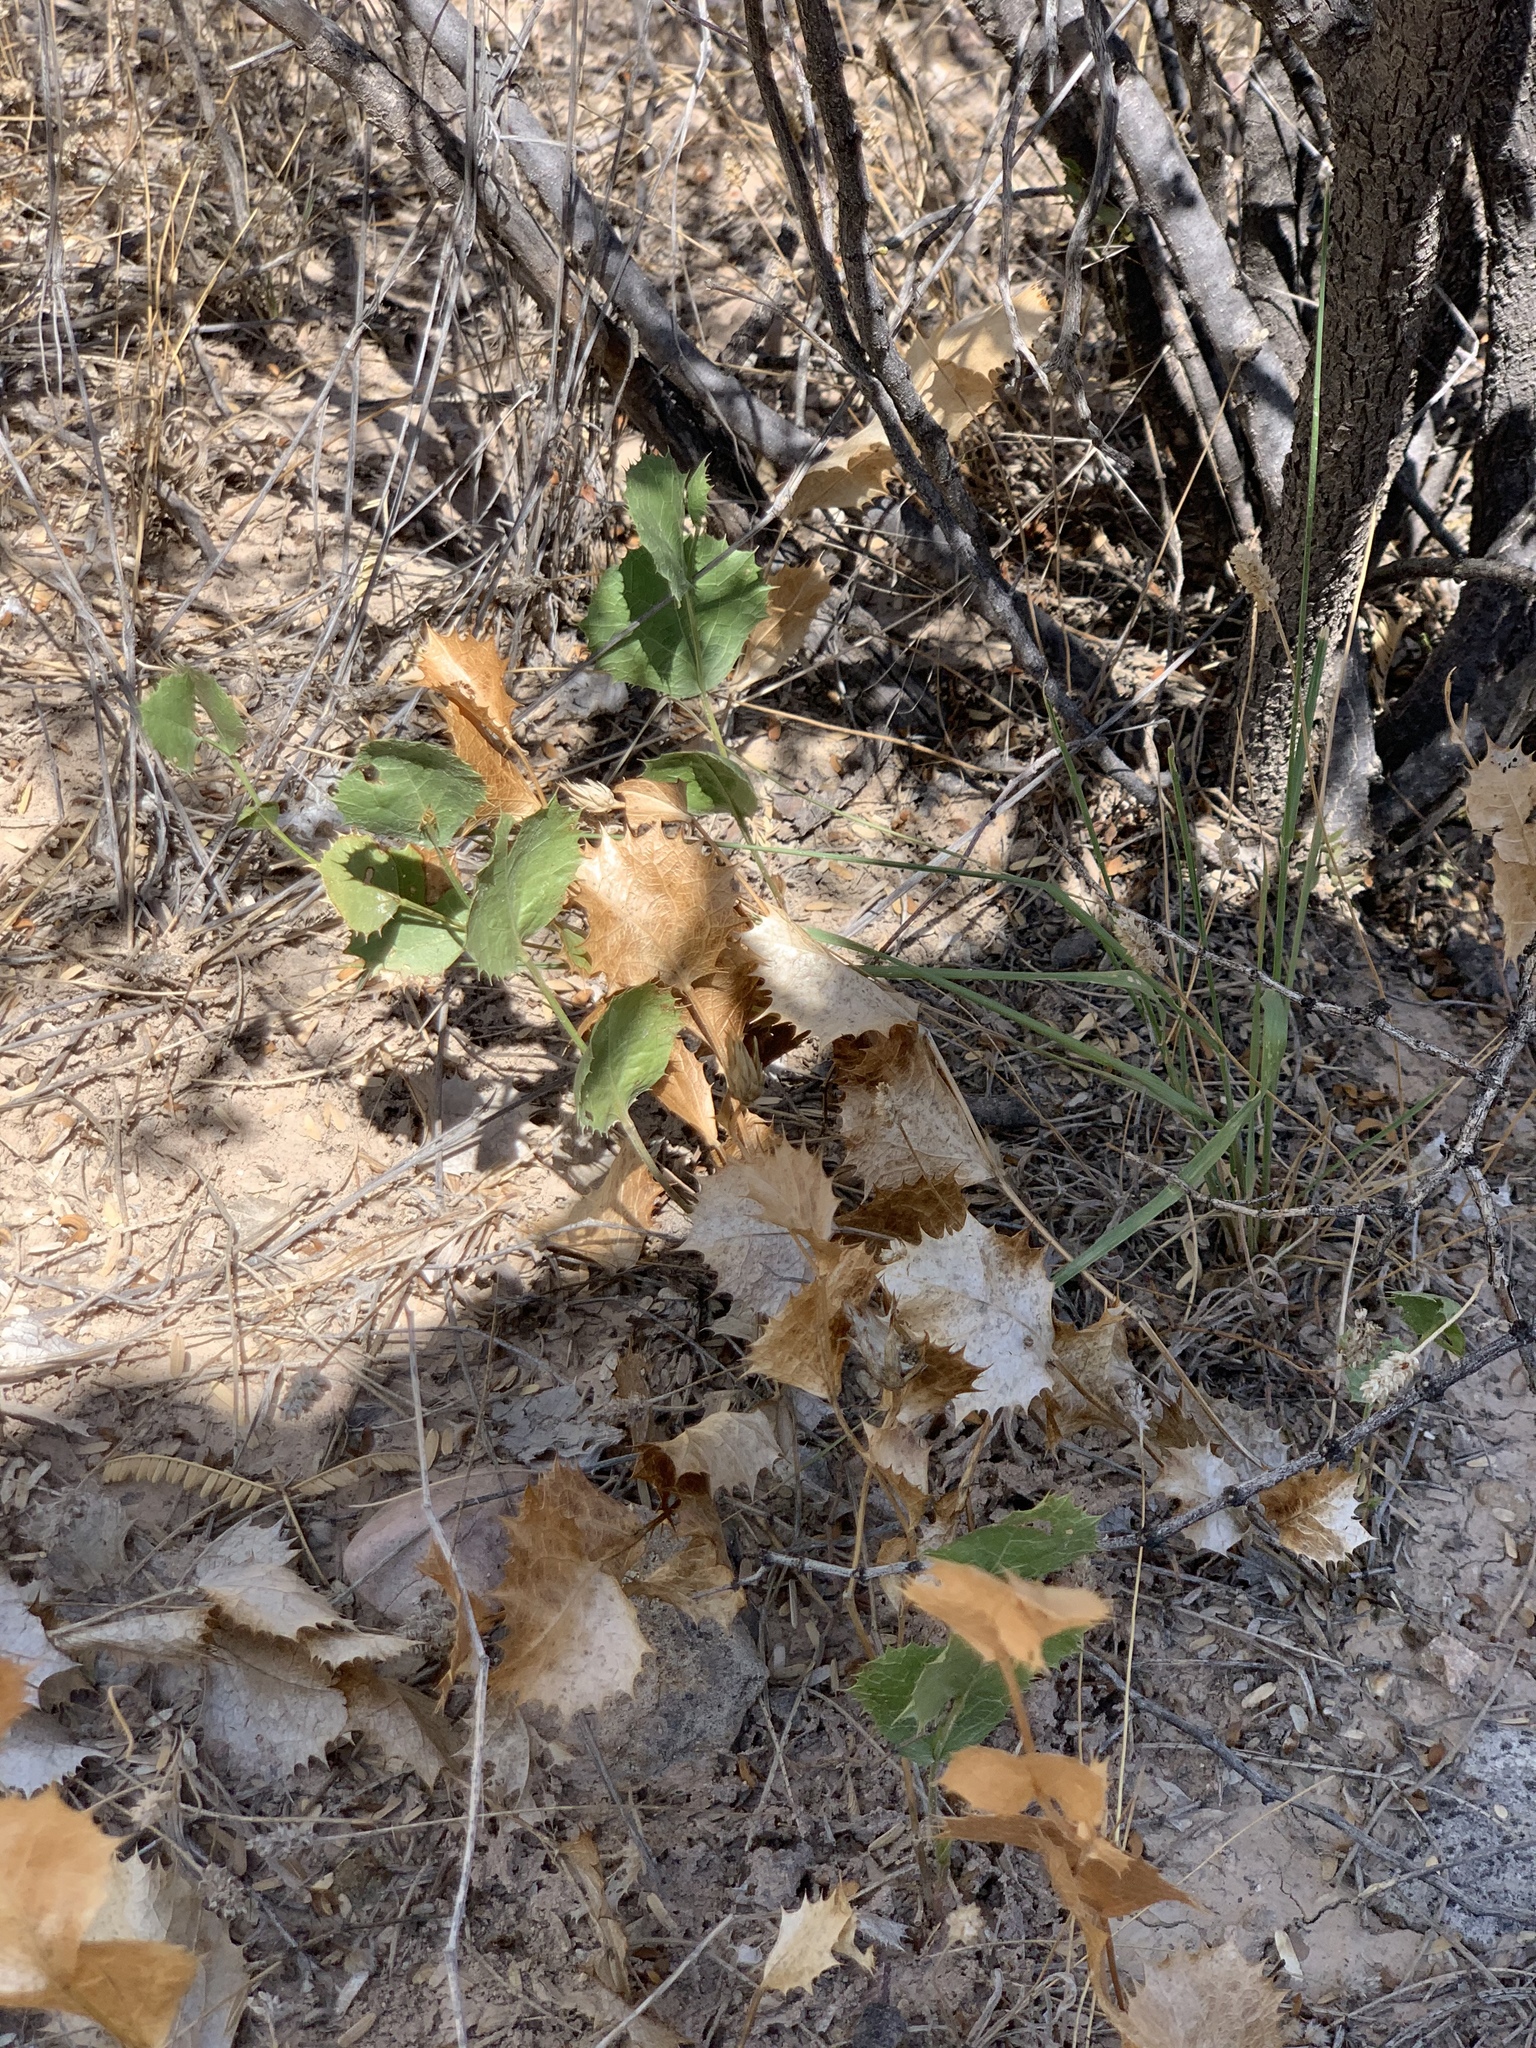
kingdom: Plantae
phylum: Tracheophyta
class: Magnoliopsida
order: Asterales
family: Asteraceae
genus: Acourtia
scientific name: Acourtia nana
